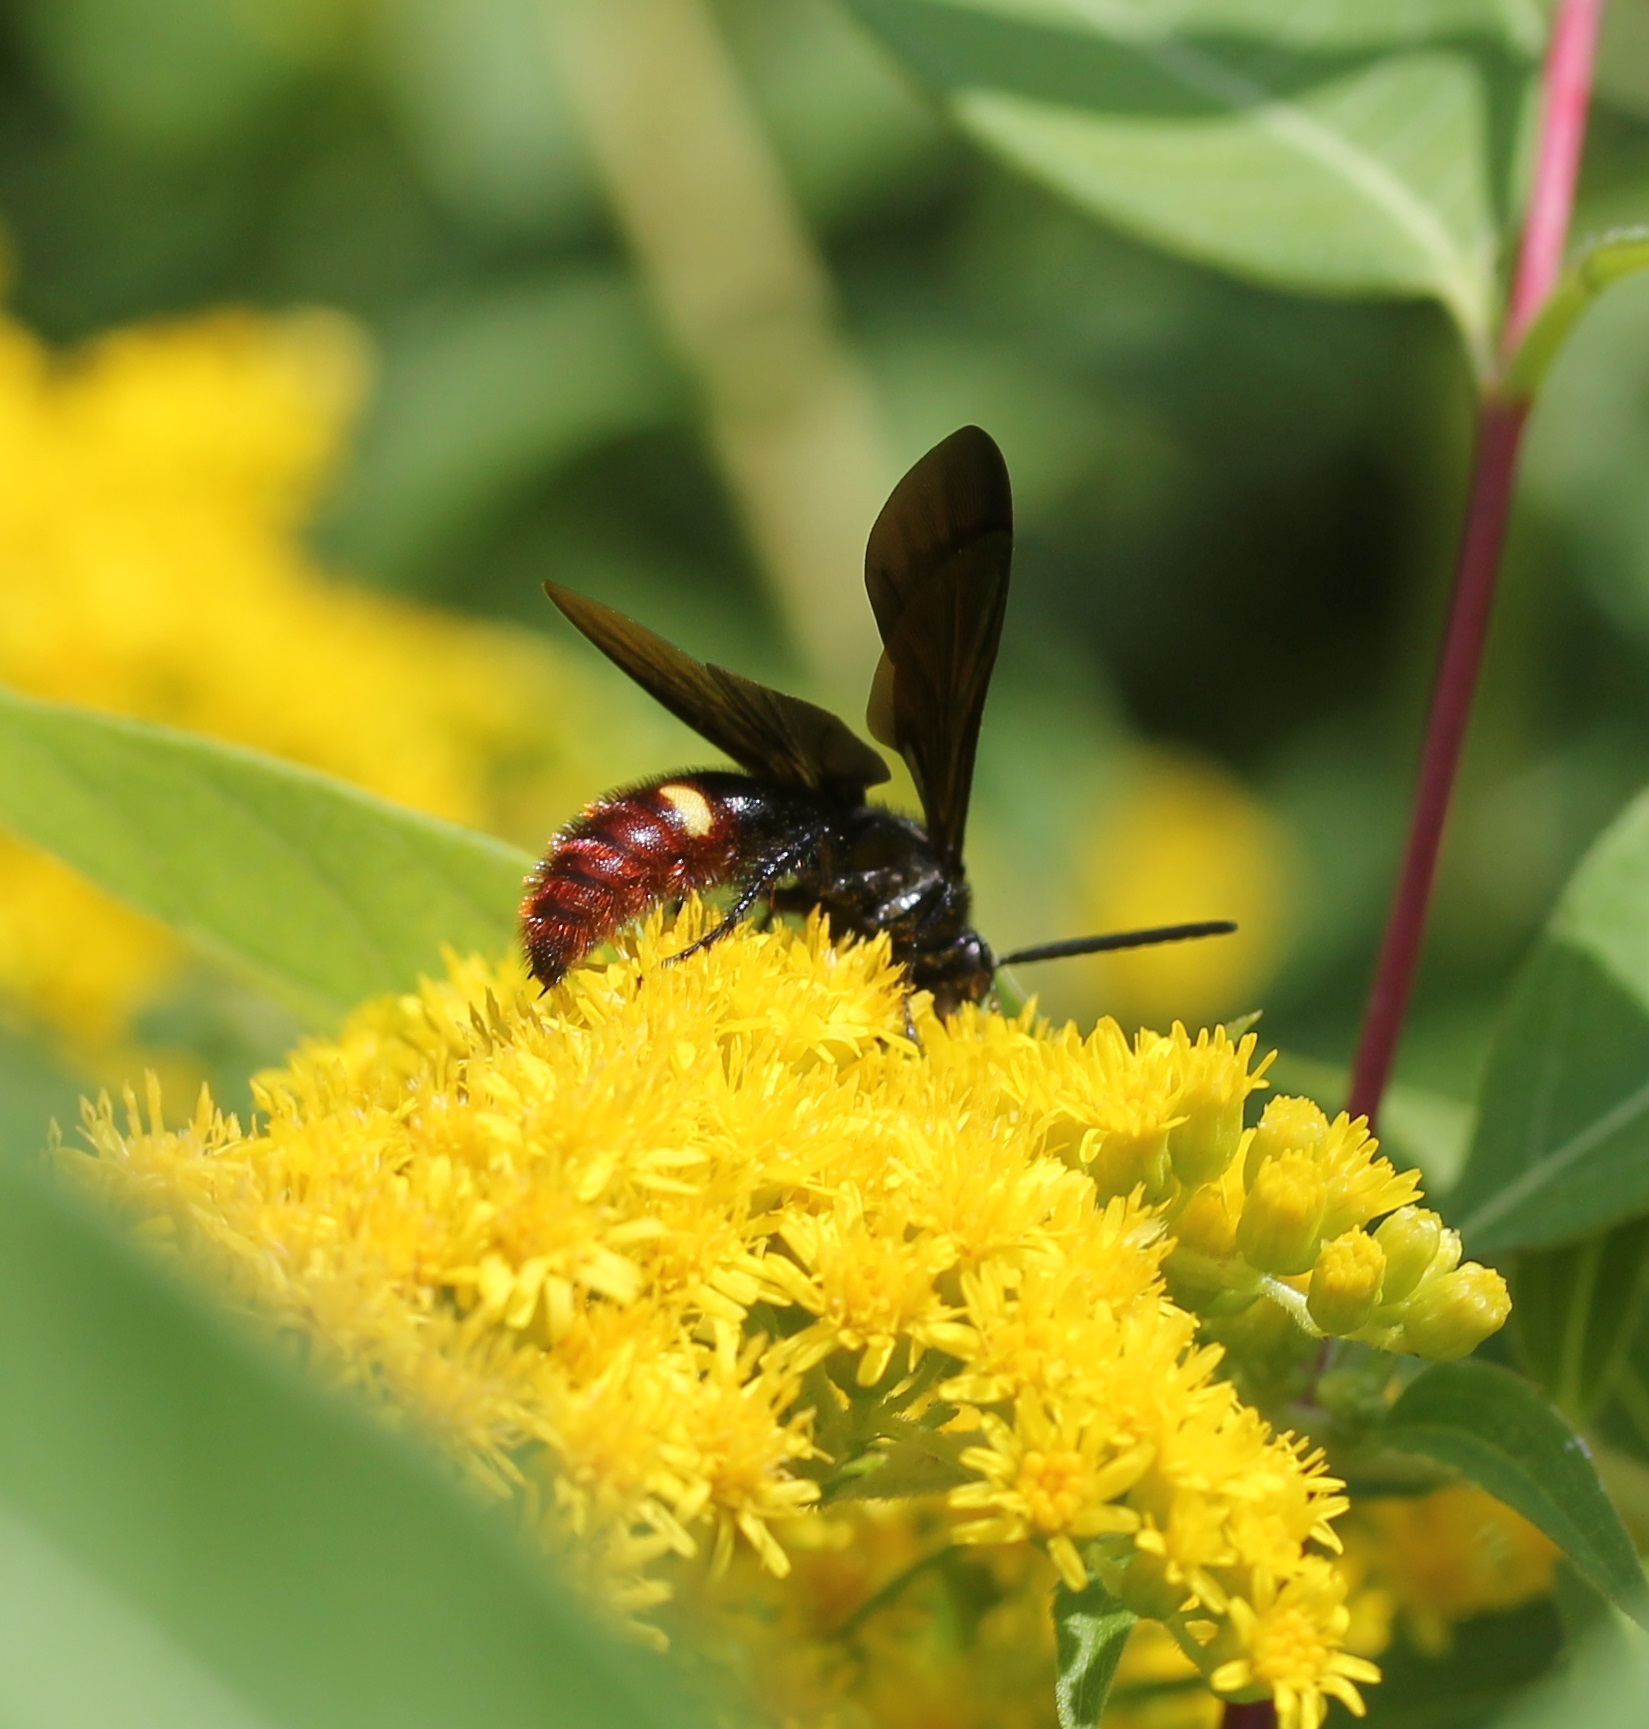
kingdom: Animalia
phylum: Arthropoda
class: Insecta
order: Hymenoptera
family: Scoliidae
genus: Scolia
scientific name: Scolia dubia
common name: Blue-winged scoliid wasp
